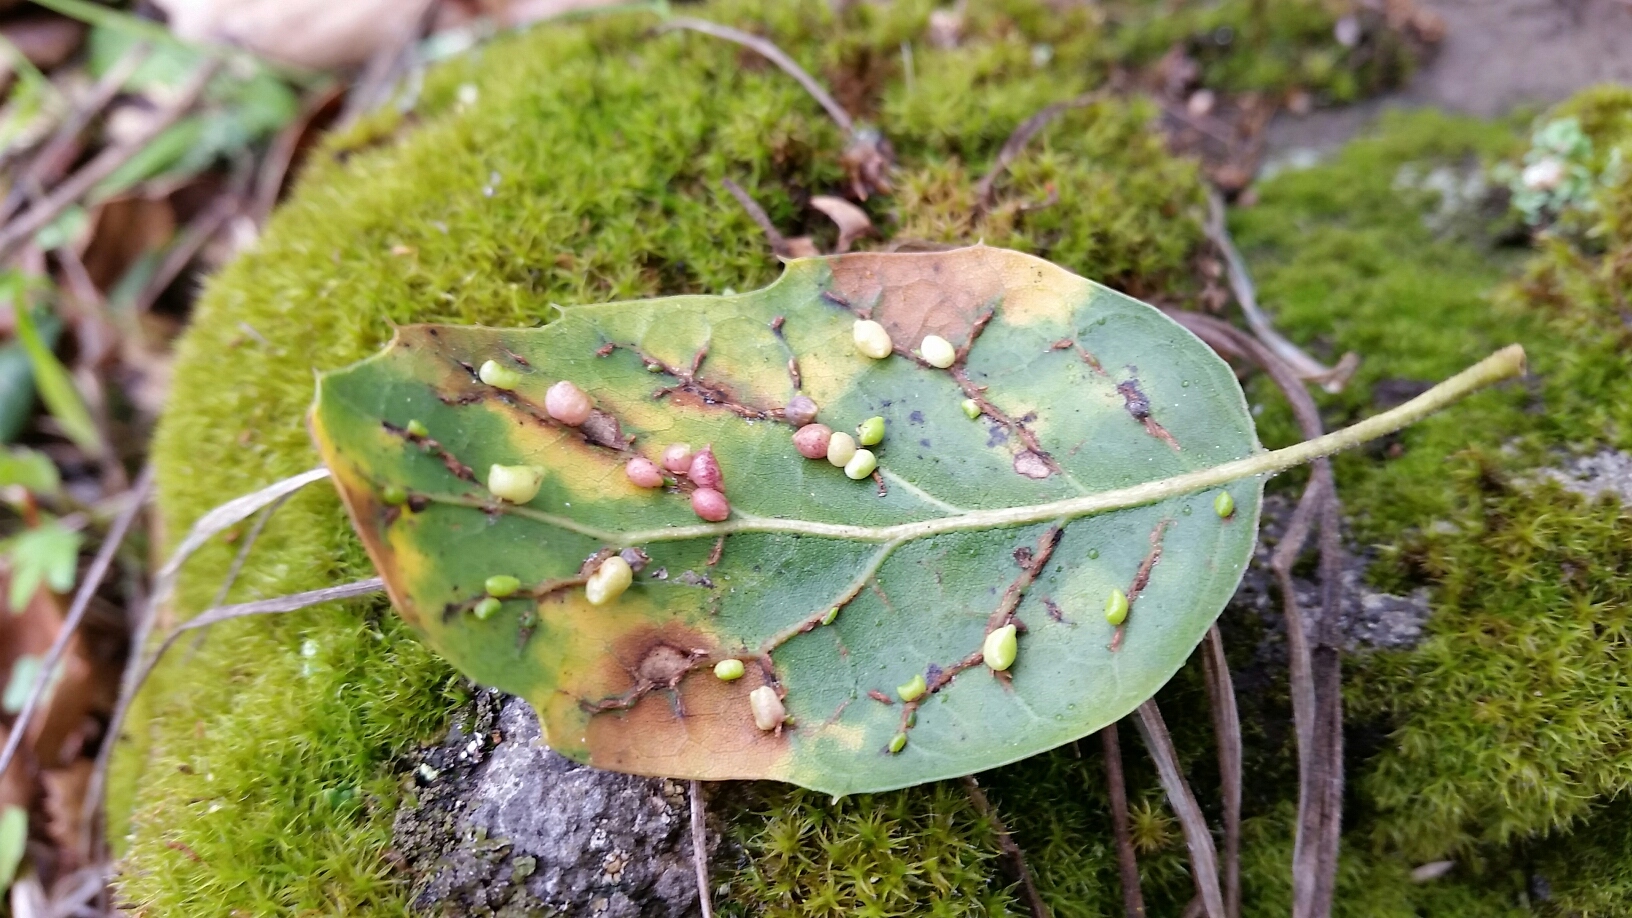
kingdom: Animalia
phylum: Arthropoda
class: Insecta
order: Hymenoptera
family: Cynipidae
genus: Dryocosmus
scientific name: Dryocosmus
